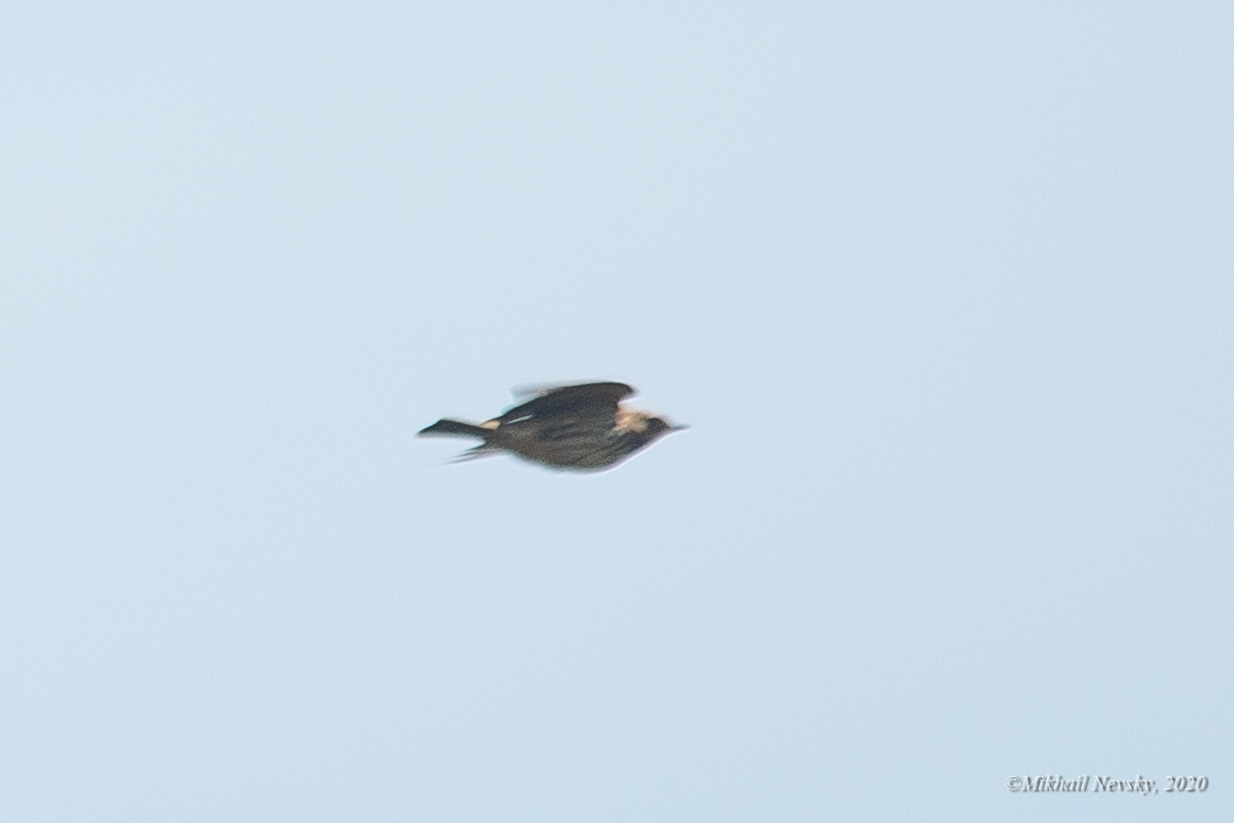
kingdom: Animalia
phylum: Chordata
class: Aves
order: Passeriformes
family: Motacillidae
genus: Anthus
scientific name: Anthus pratensis
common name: Meadow pipit
